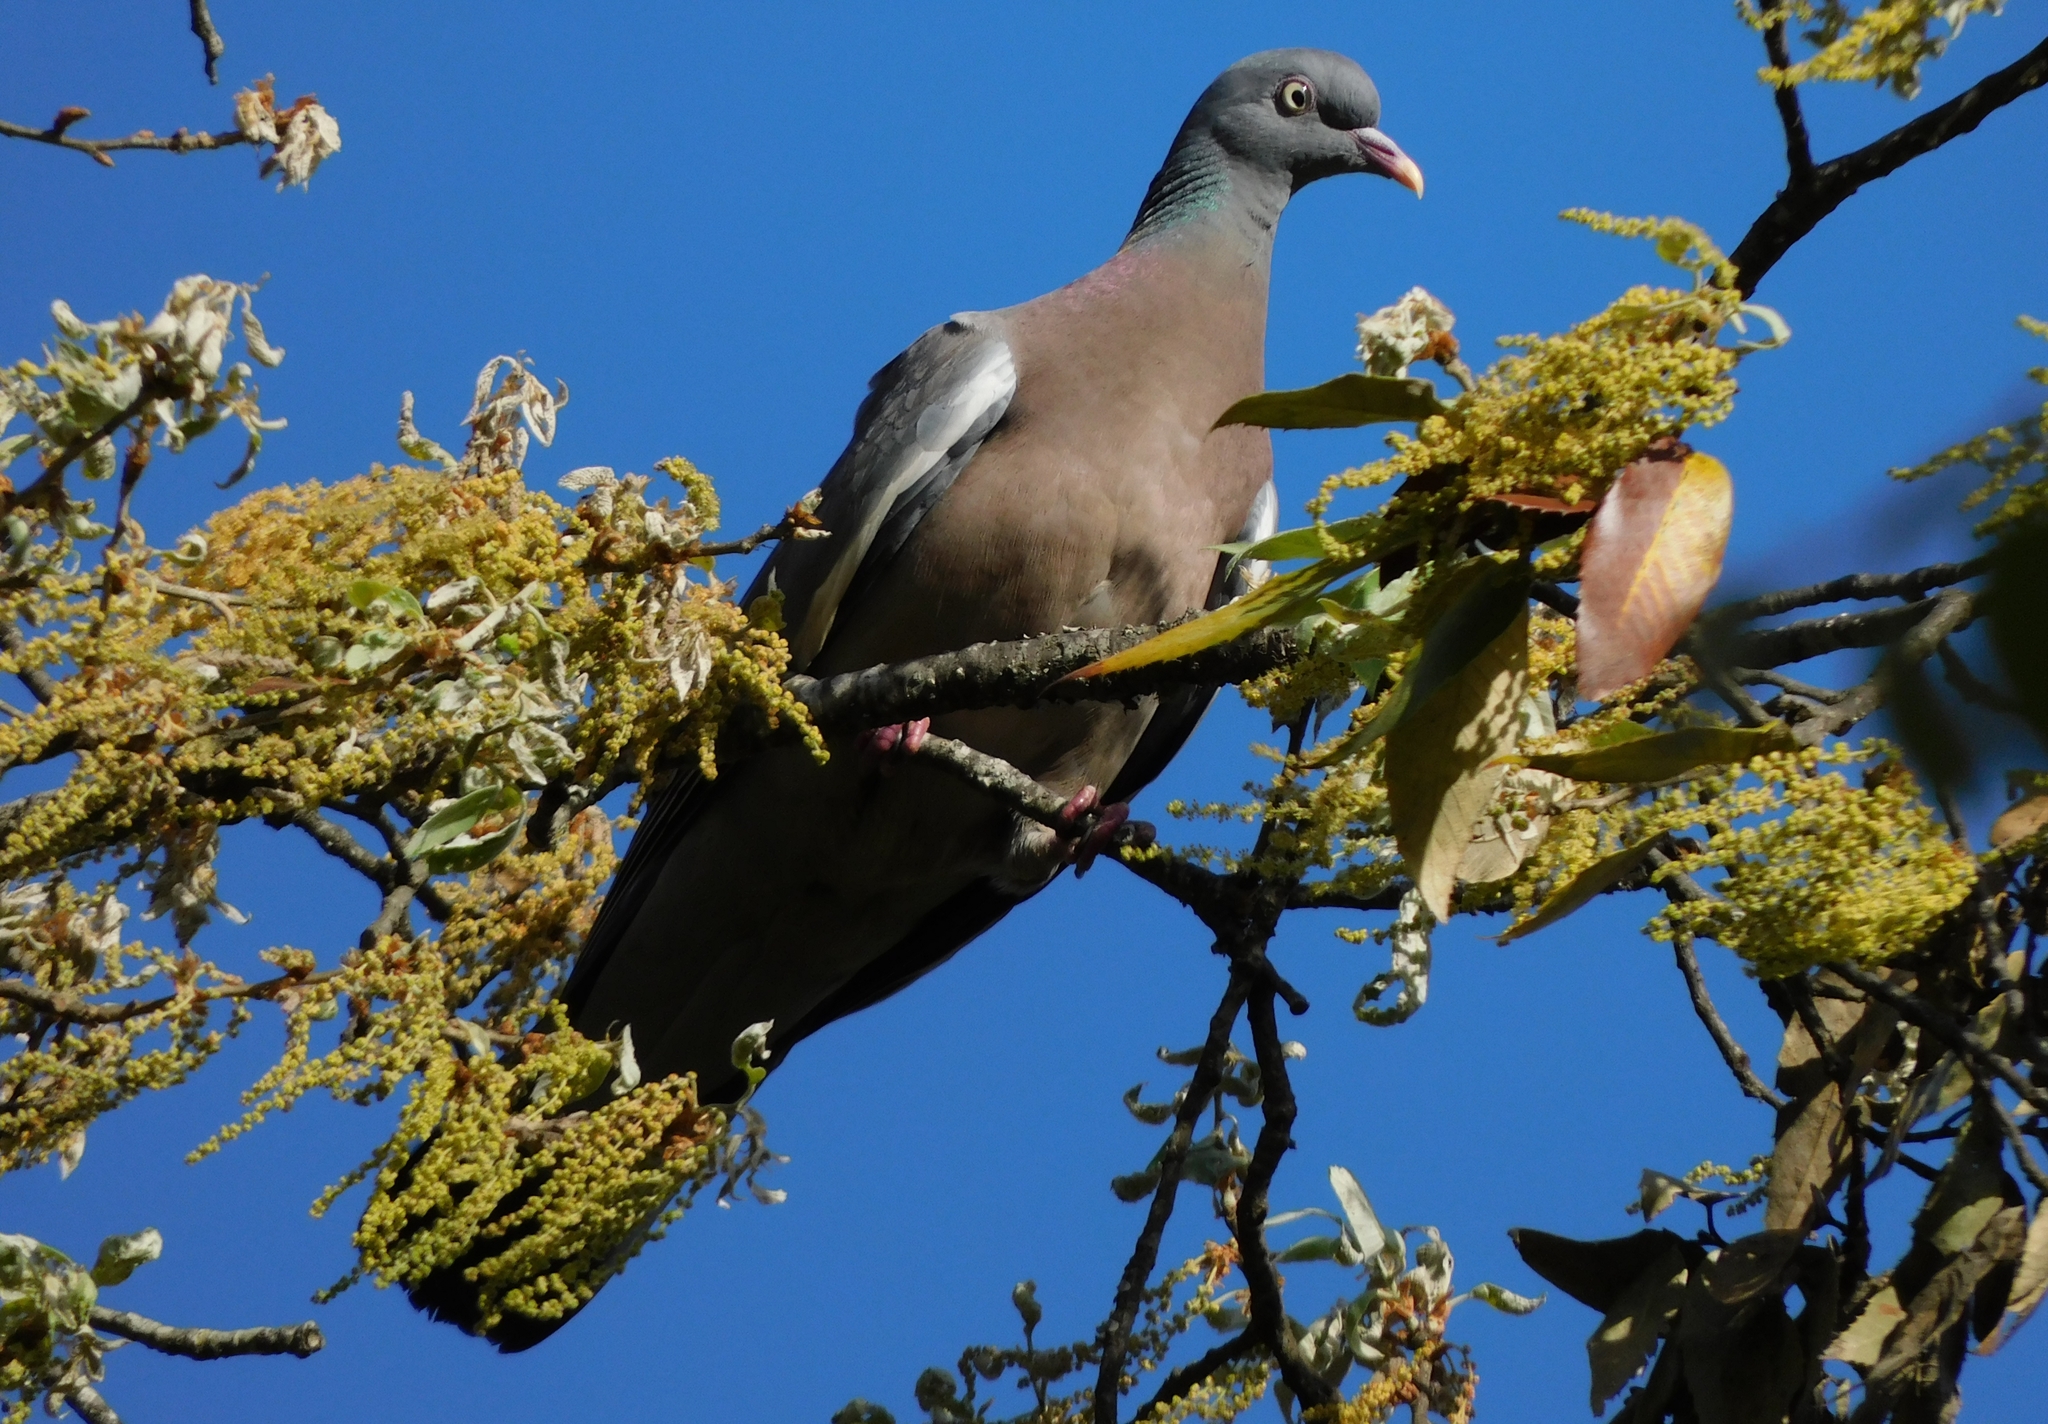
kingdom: Animalia
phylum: Chordata
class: Aves
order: Columbiformes
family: Columbidae
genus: Columba
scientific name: Columba palumbus
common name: Common wood pigeon
